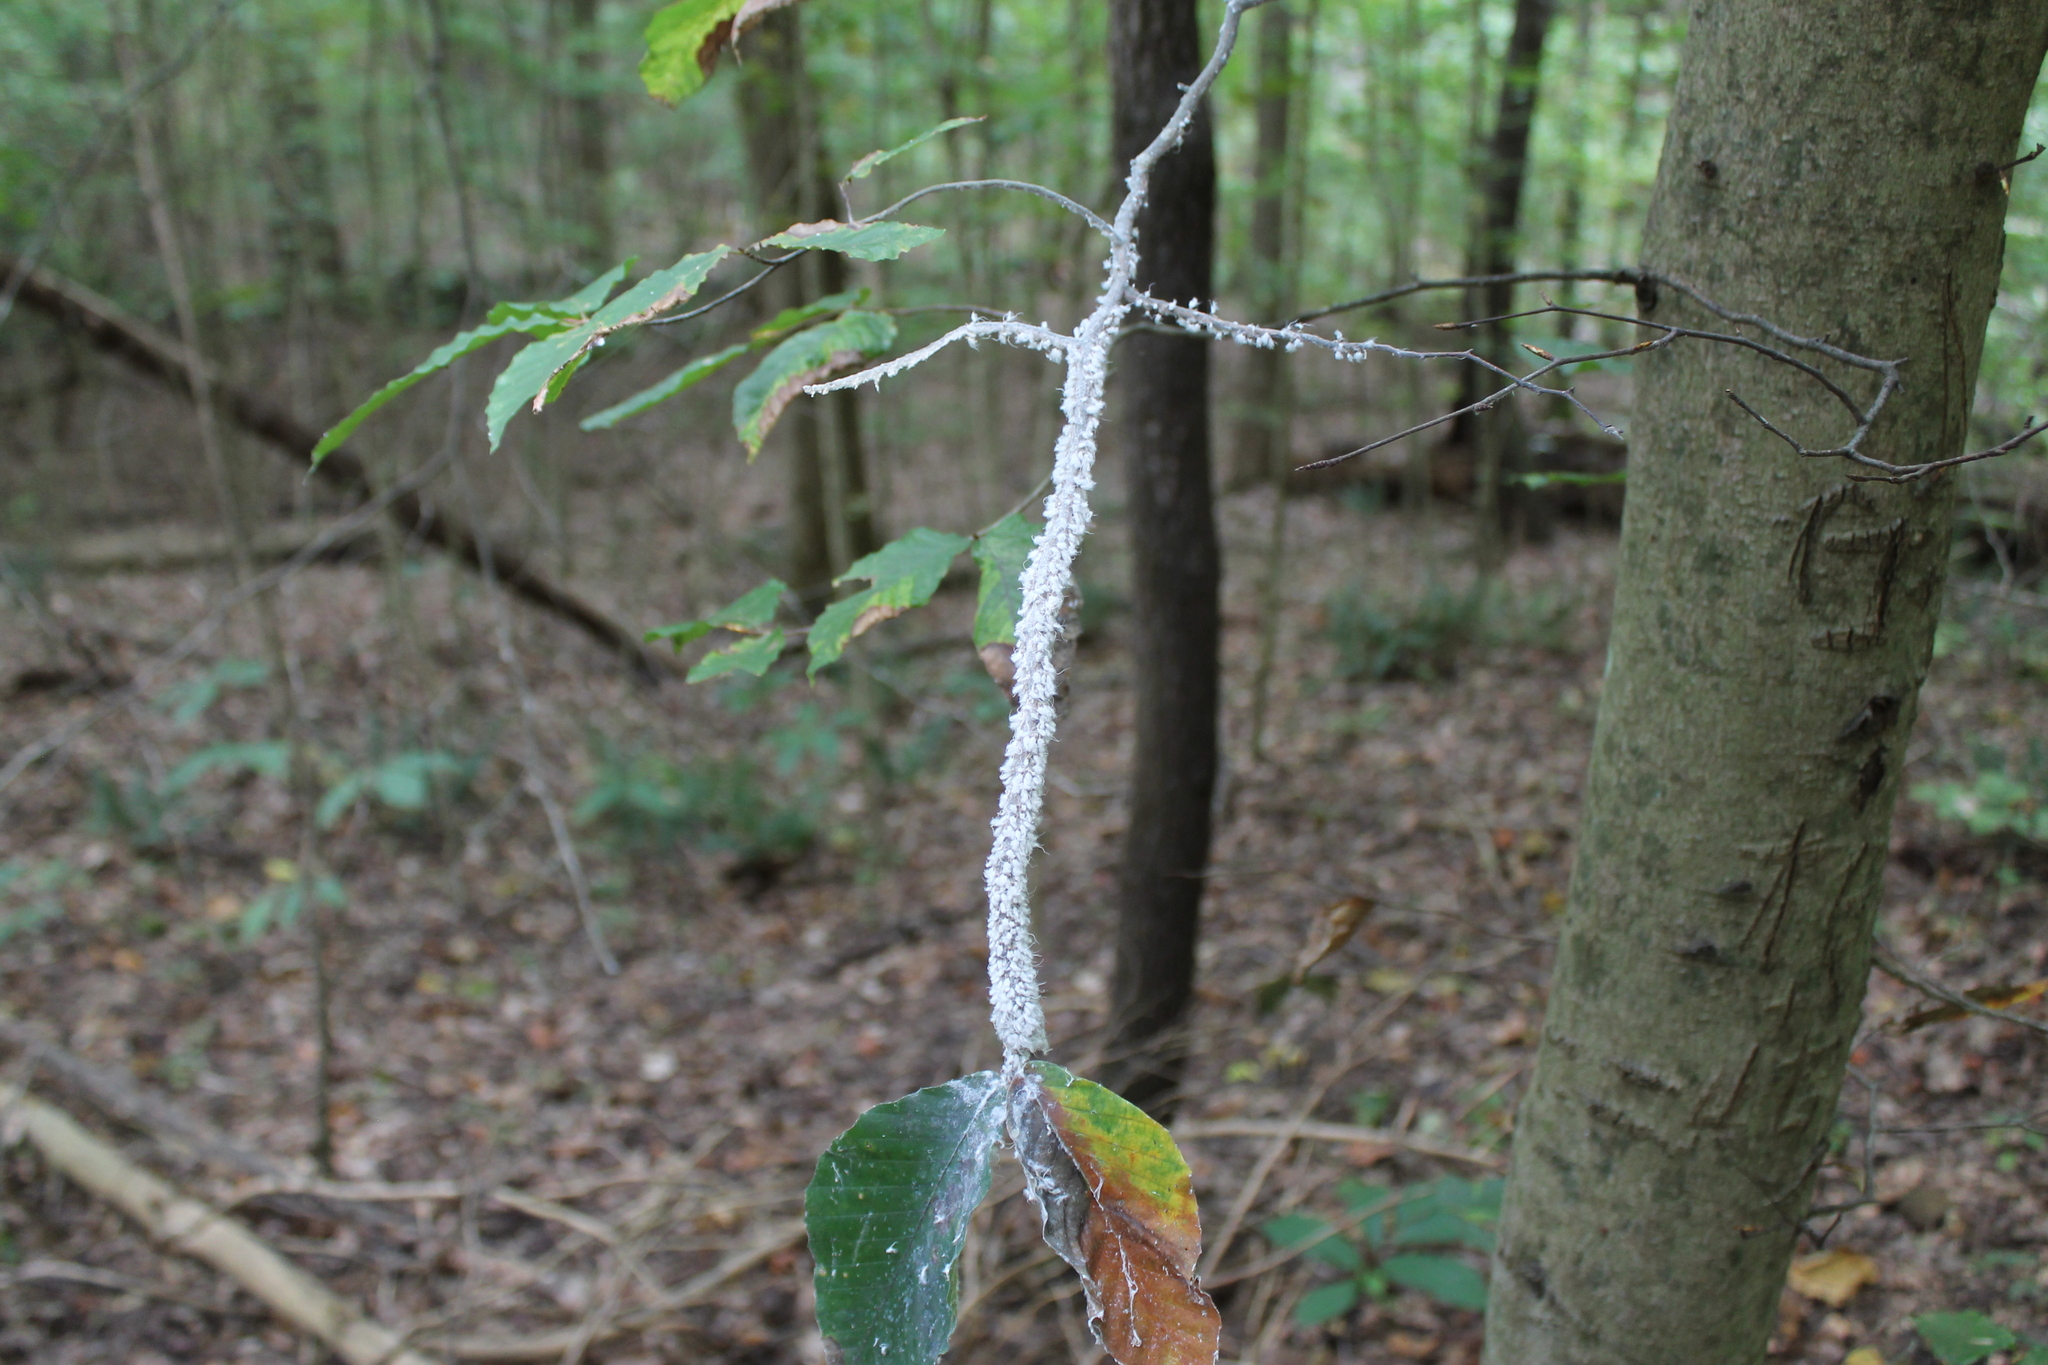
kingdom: Animalia
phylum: Arthropoda
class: Insecta
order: Hemiptera
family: Aphididae
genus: Grylloprociphilus
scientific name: Grylloprociphilus imbricator
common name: Beech blight aphid
